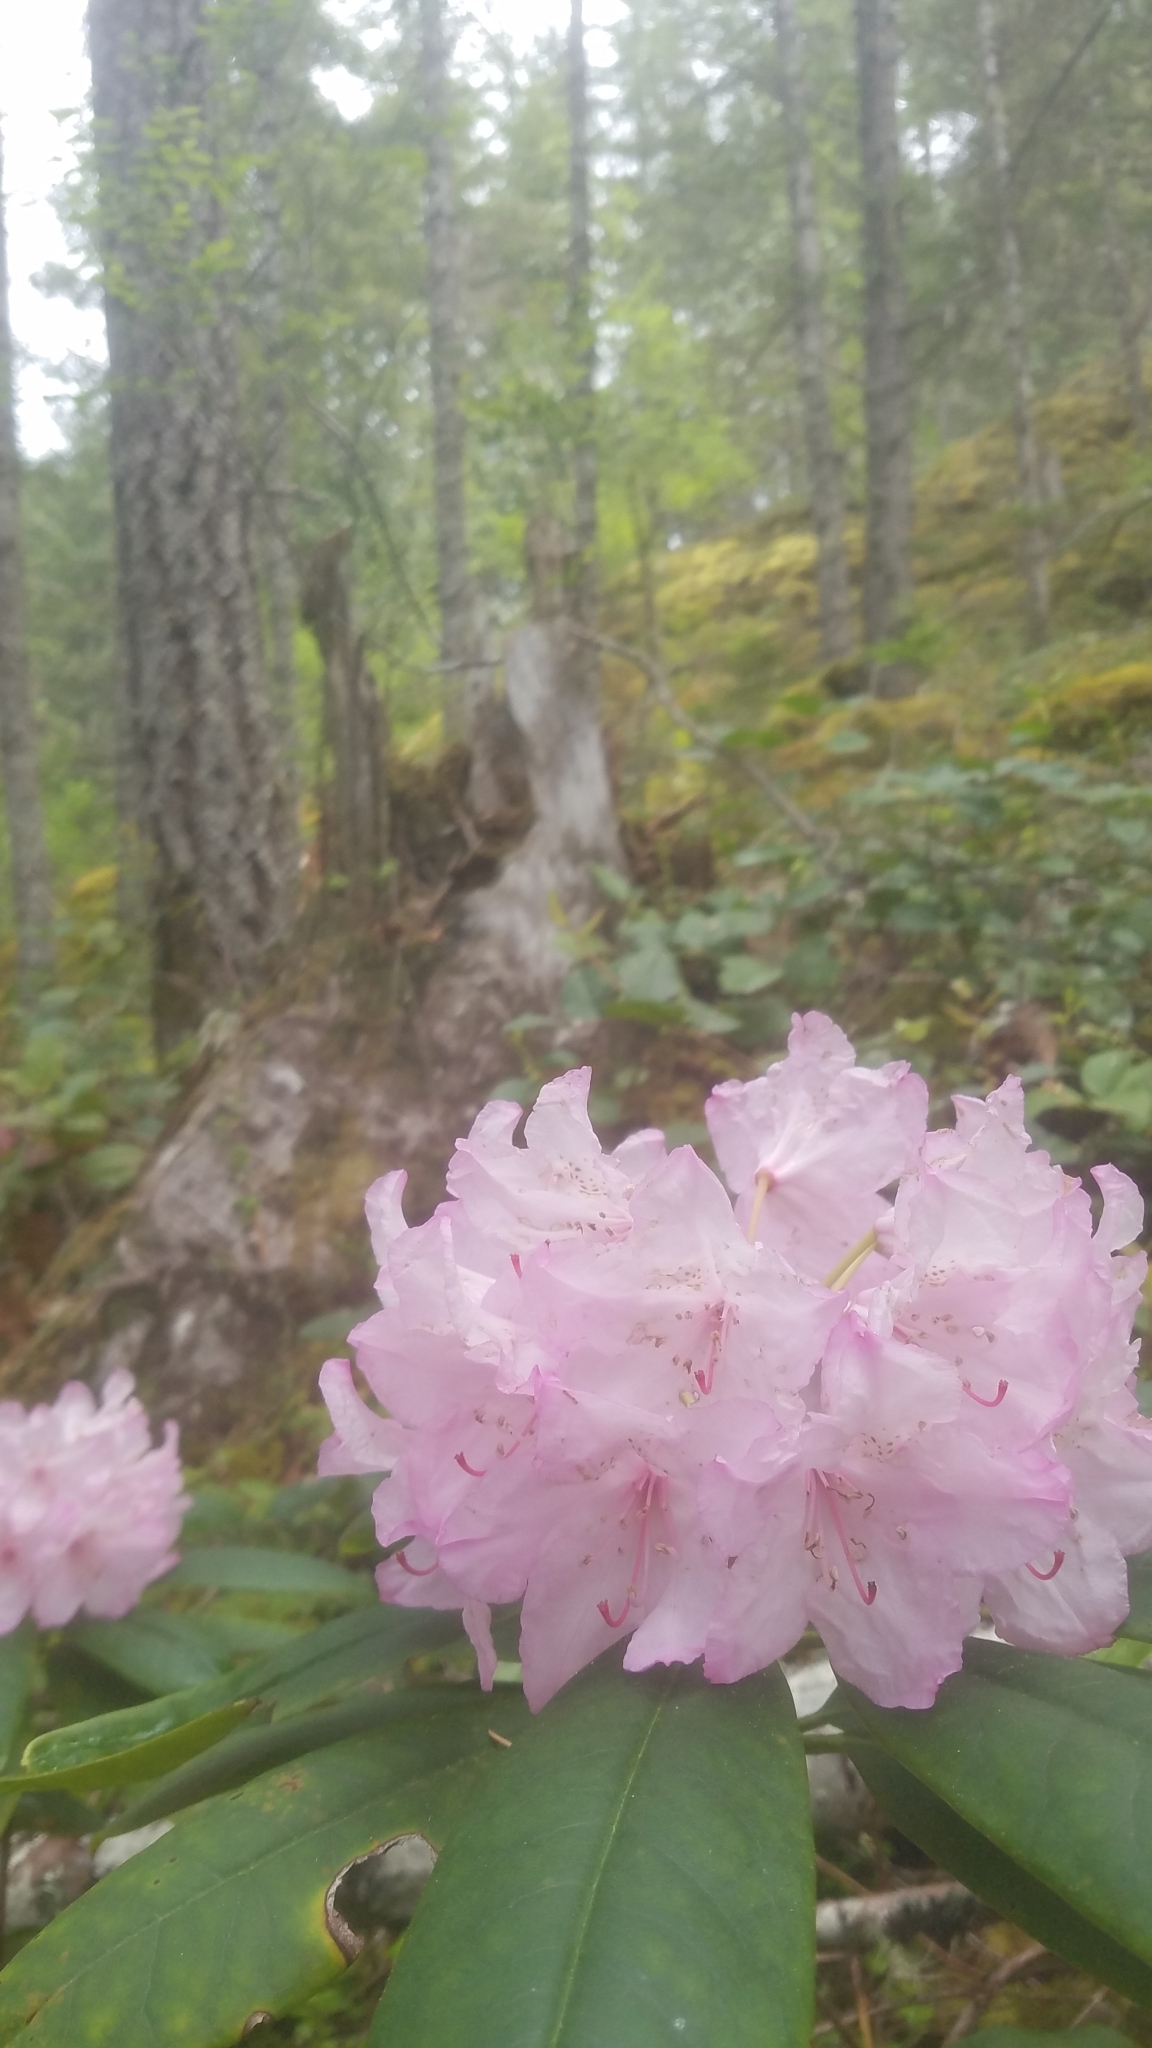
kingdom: Plantae
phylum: Tracheophyta
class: Magnoliopsida
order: Ericales
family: Ericaceae
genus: Rhododendron
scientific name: Rhododendron macrophyllum
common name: California rose bay
